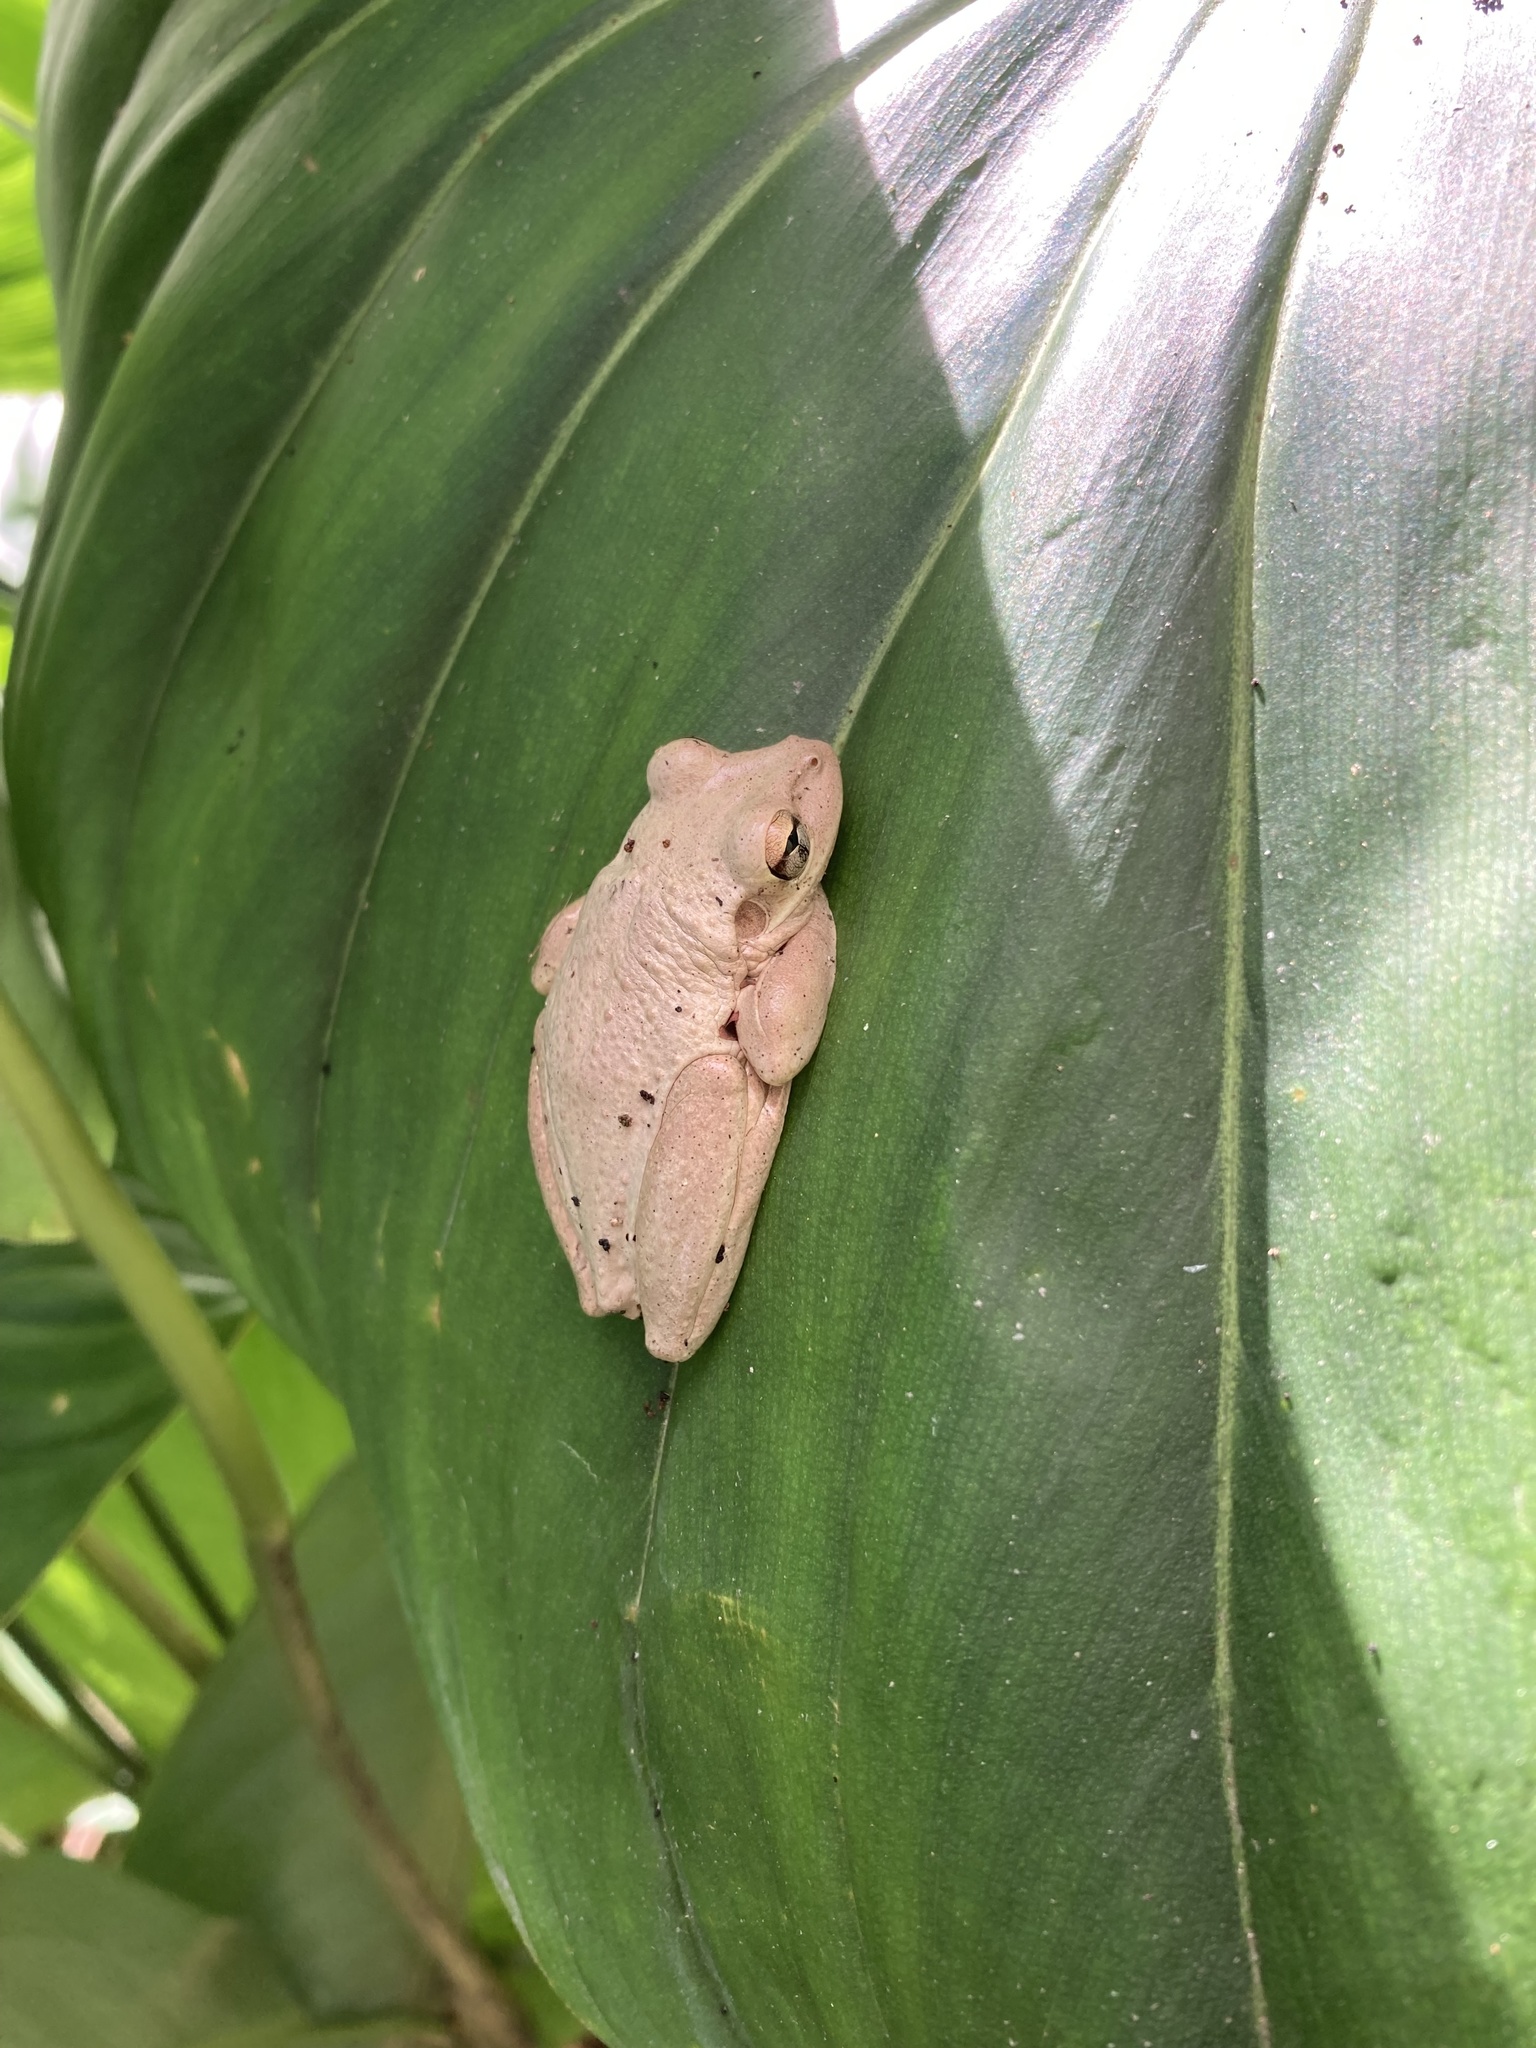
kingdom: Animalia
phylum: Chordata
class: Amphibia
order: Anura
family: Hylidae
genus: Osteopilus
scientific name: Osteopilus septentrionalis
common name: Cuban treefrog
